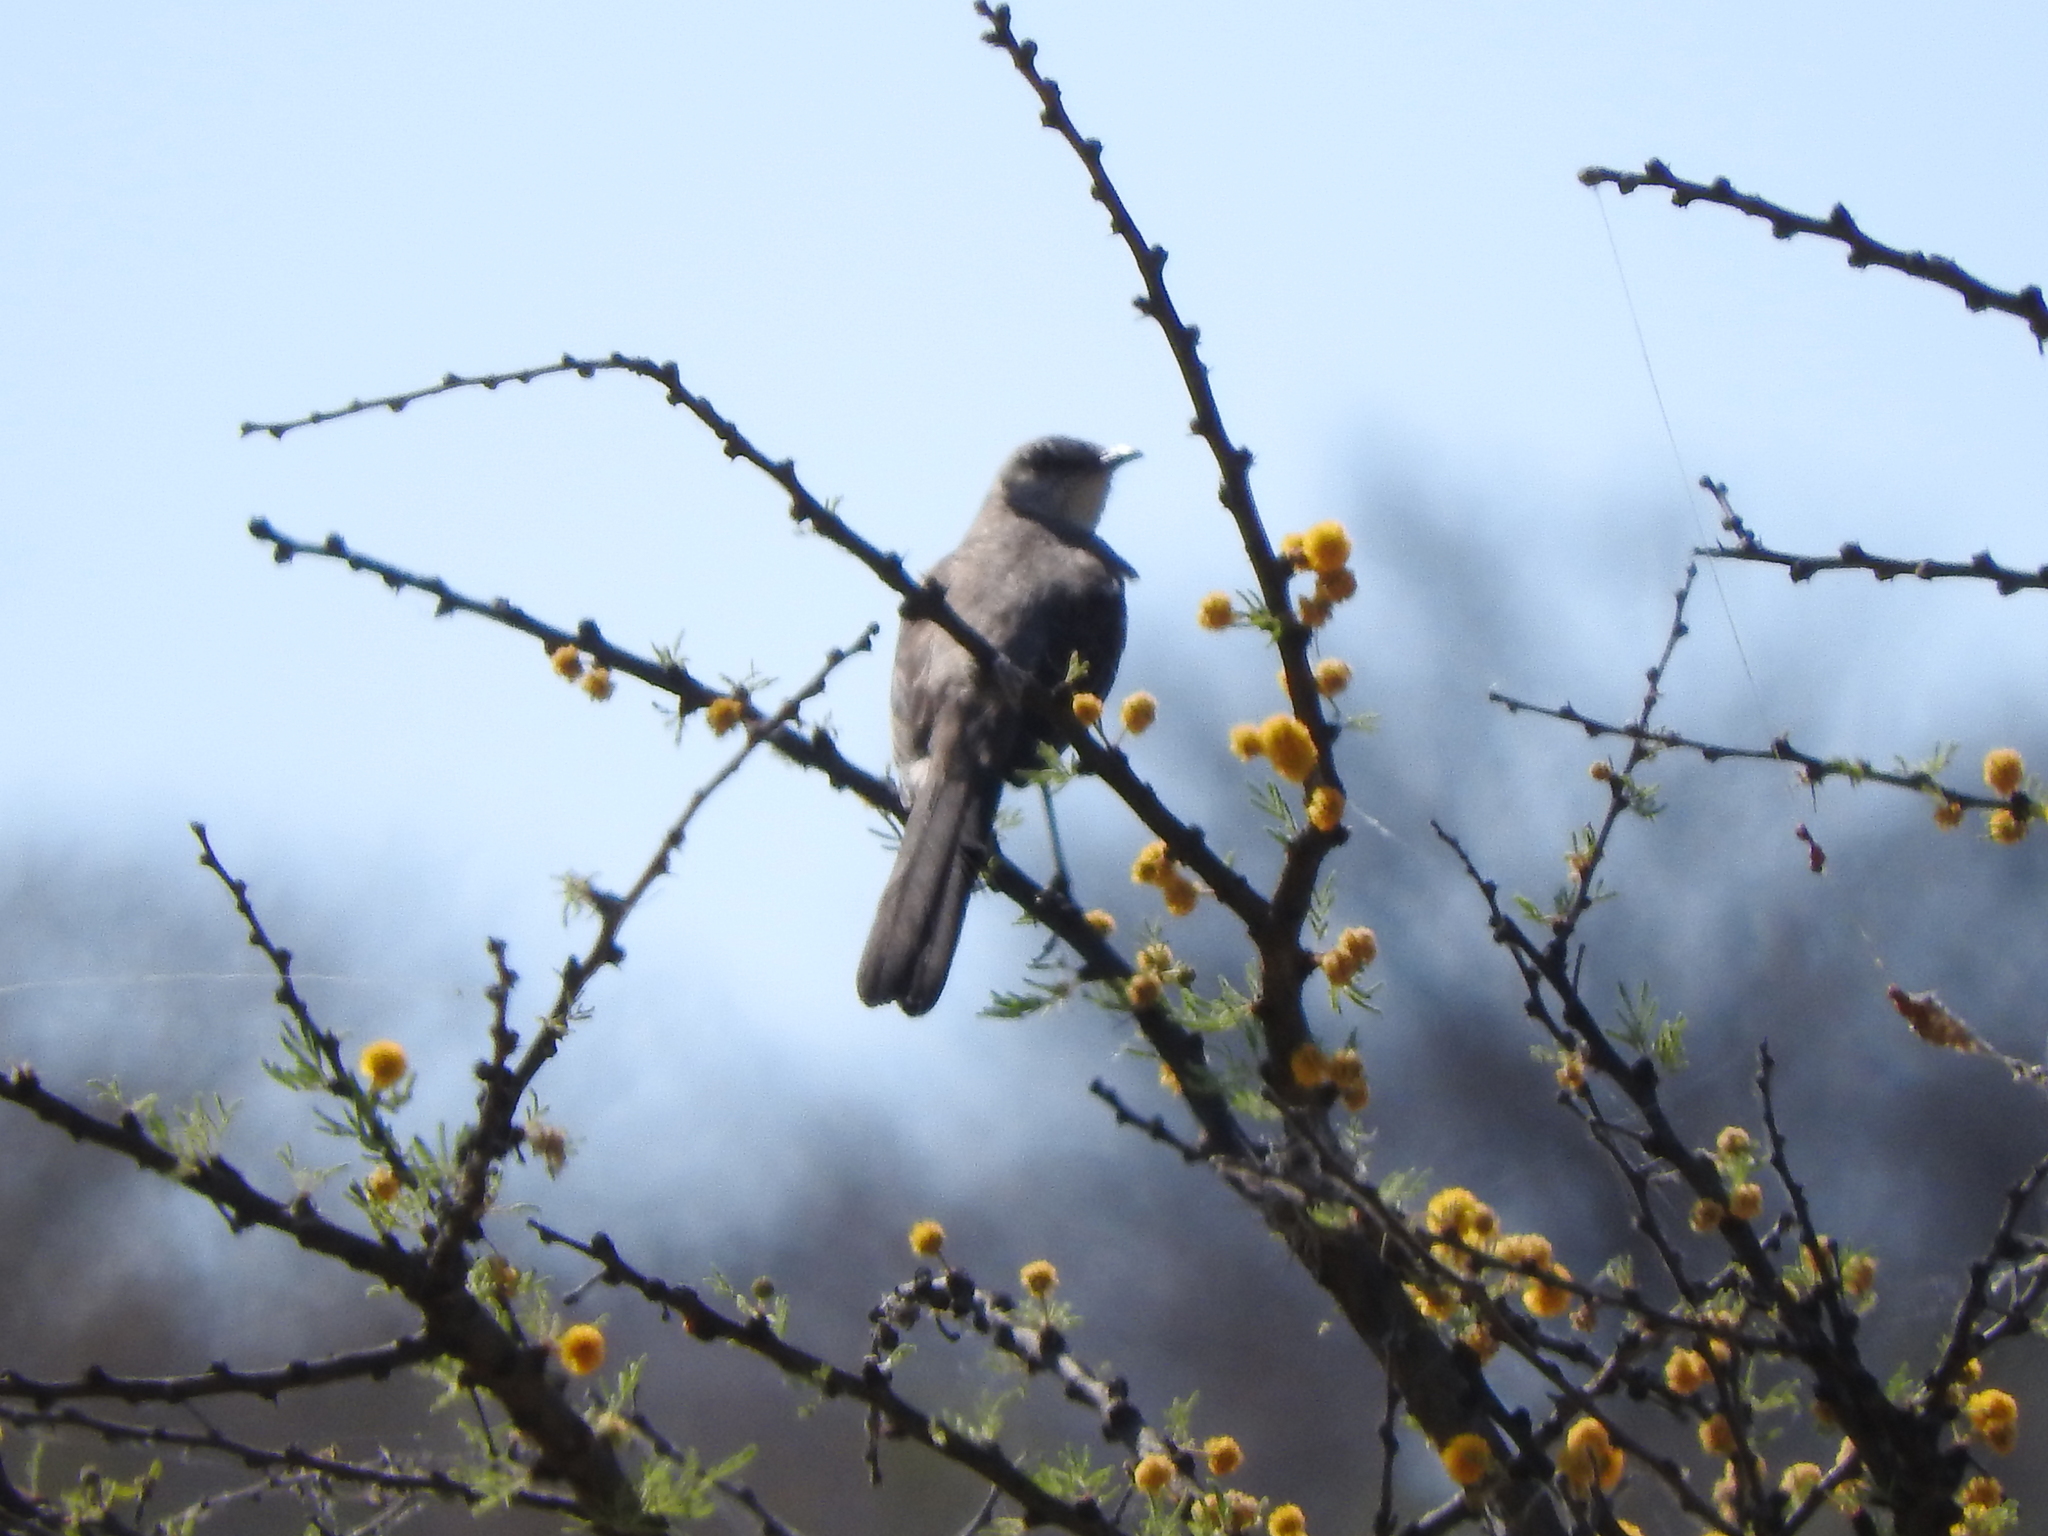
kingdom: Animalia
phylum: Chordata
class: Aves
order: Passeriformes
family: Mimidae
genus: Mimus
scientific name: Mimus polyglottos
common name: Northern mockingbird
